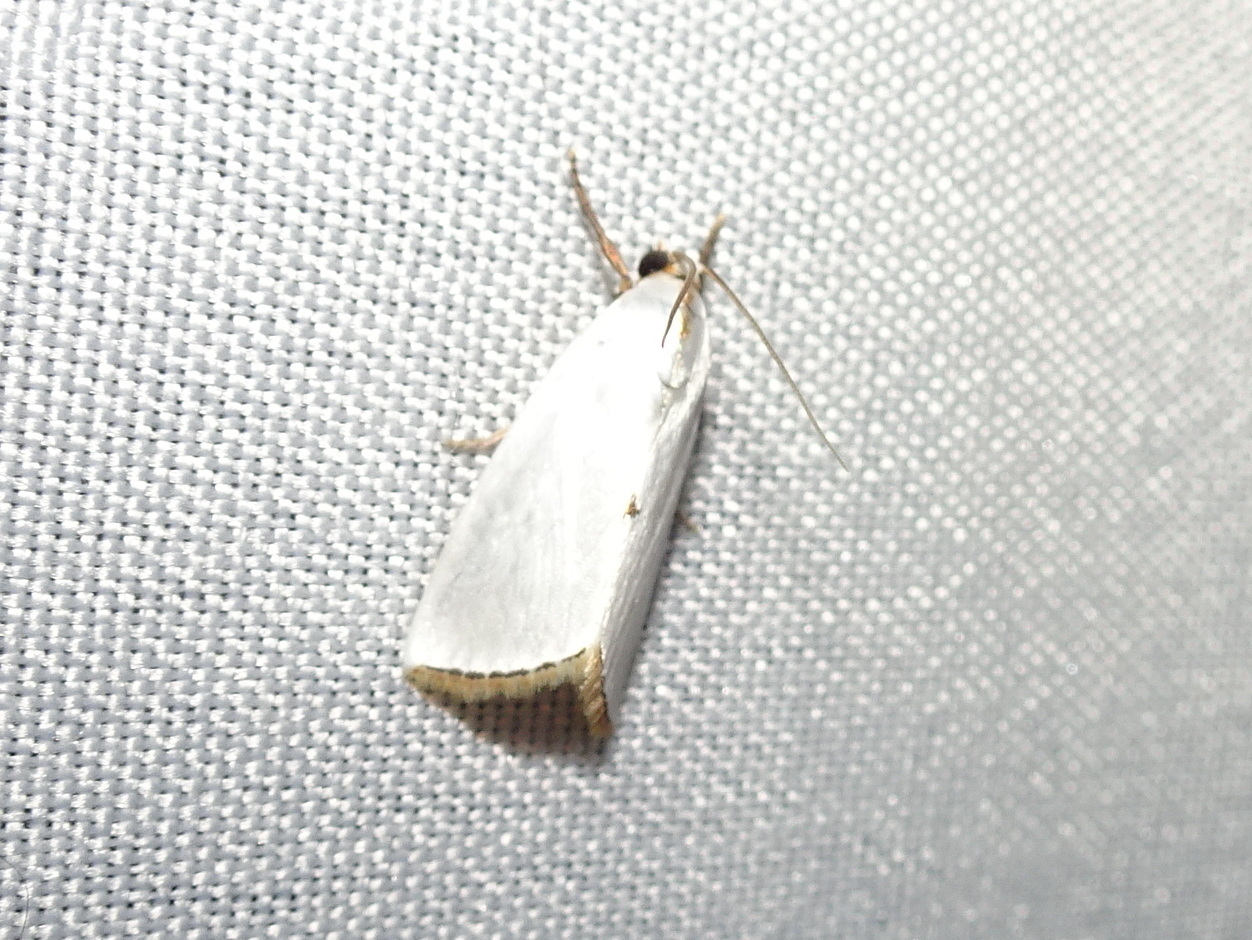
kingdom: Animalia
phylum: Arthropoda
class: Insecta
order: Lepidoptera
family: Crambidae
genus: Argyria
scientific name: Argyria nivalis
